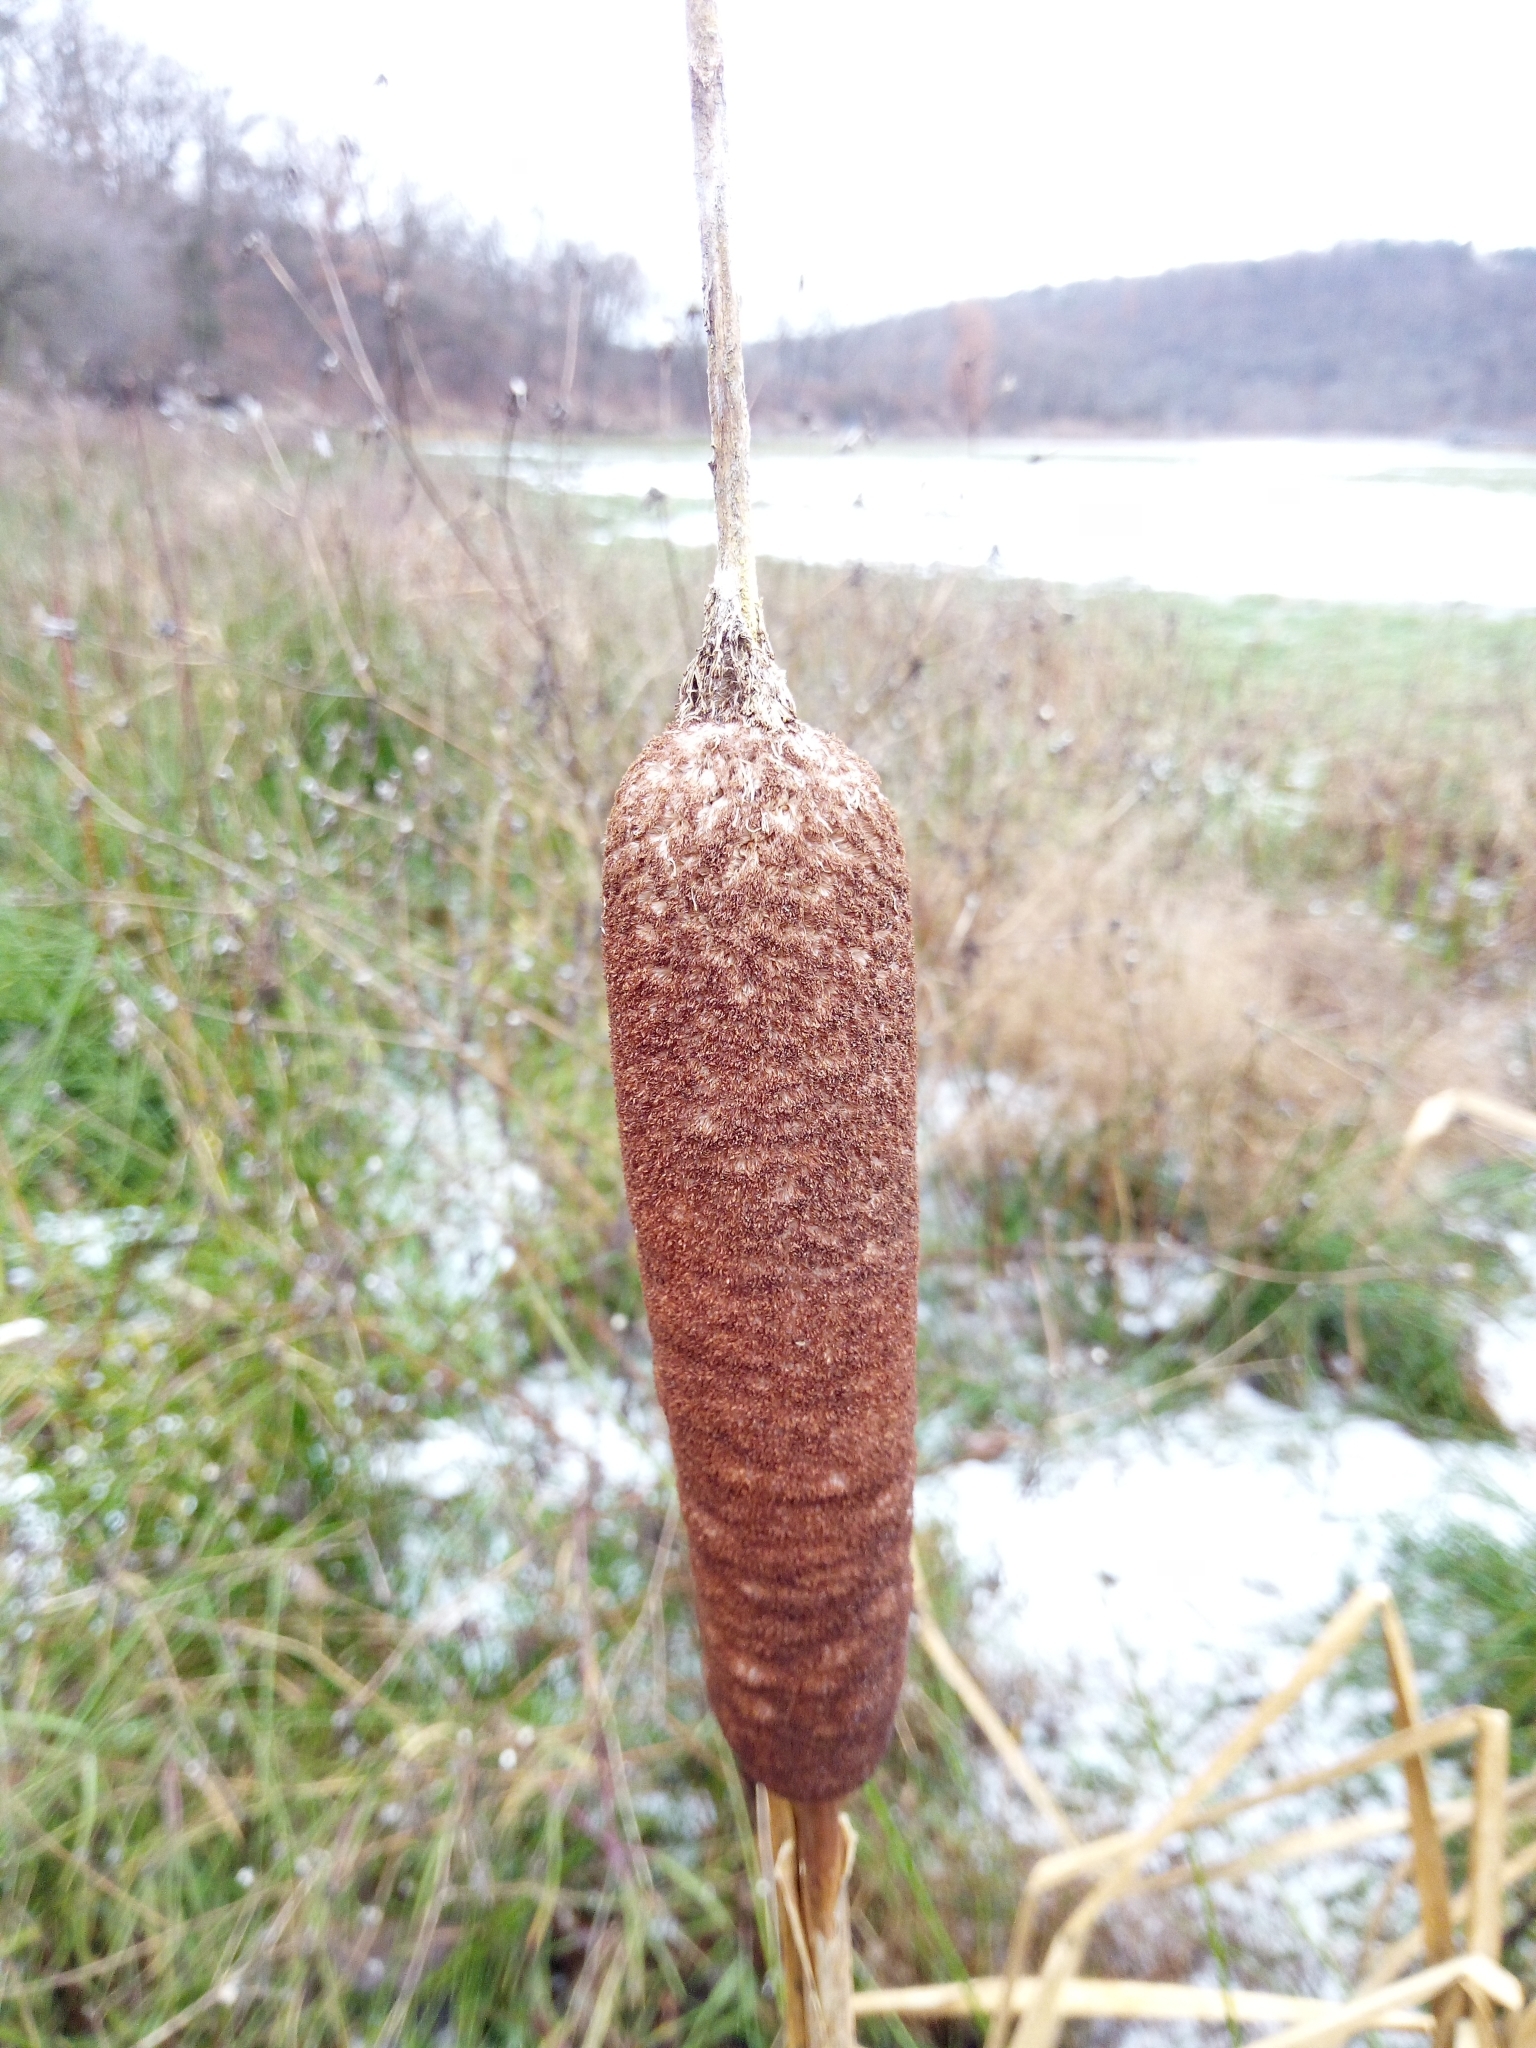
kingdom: Plantae
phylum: Tracheophyta
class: Liliopsida
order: Poales
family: Typhaceae
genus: Typha
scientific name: Typha latifolia
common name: Broadleaf cattail
